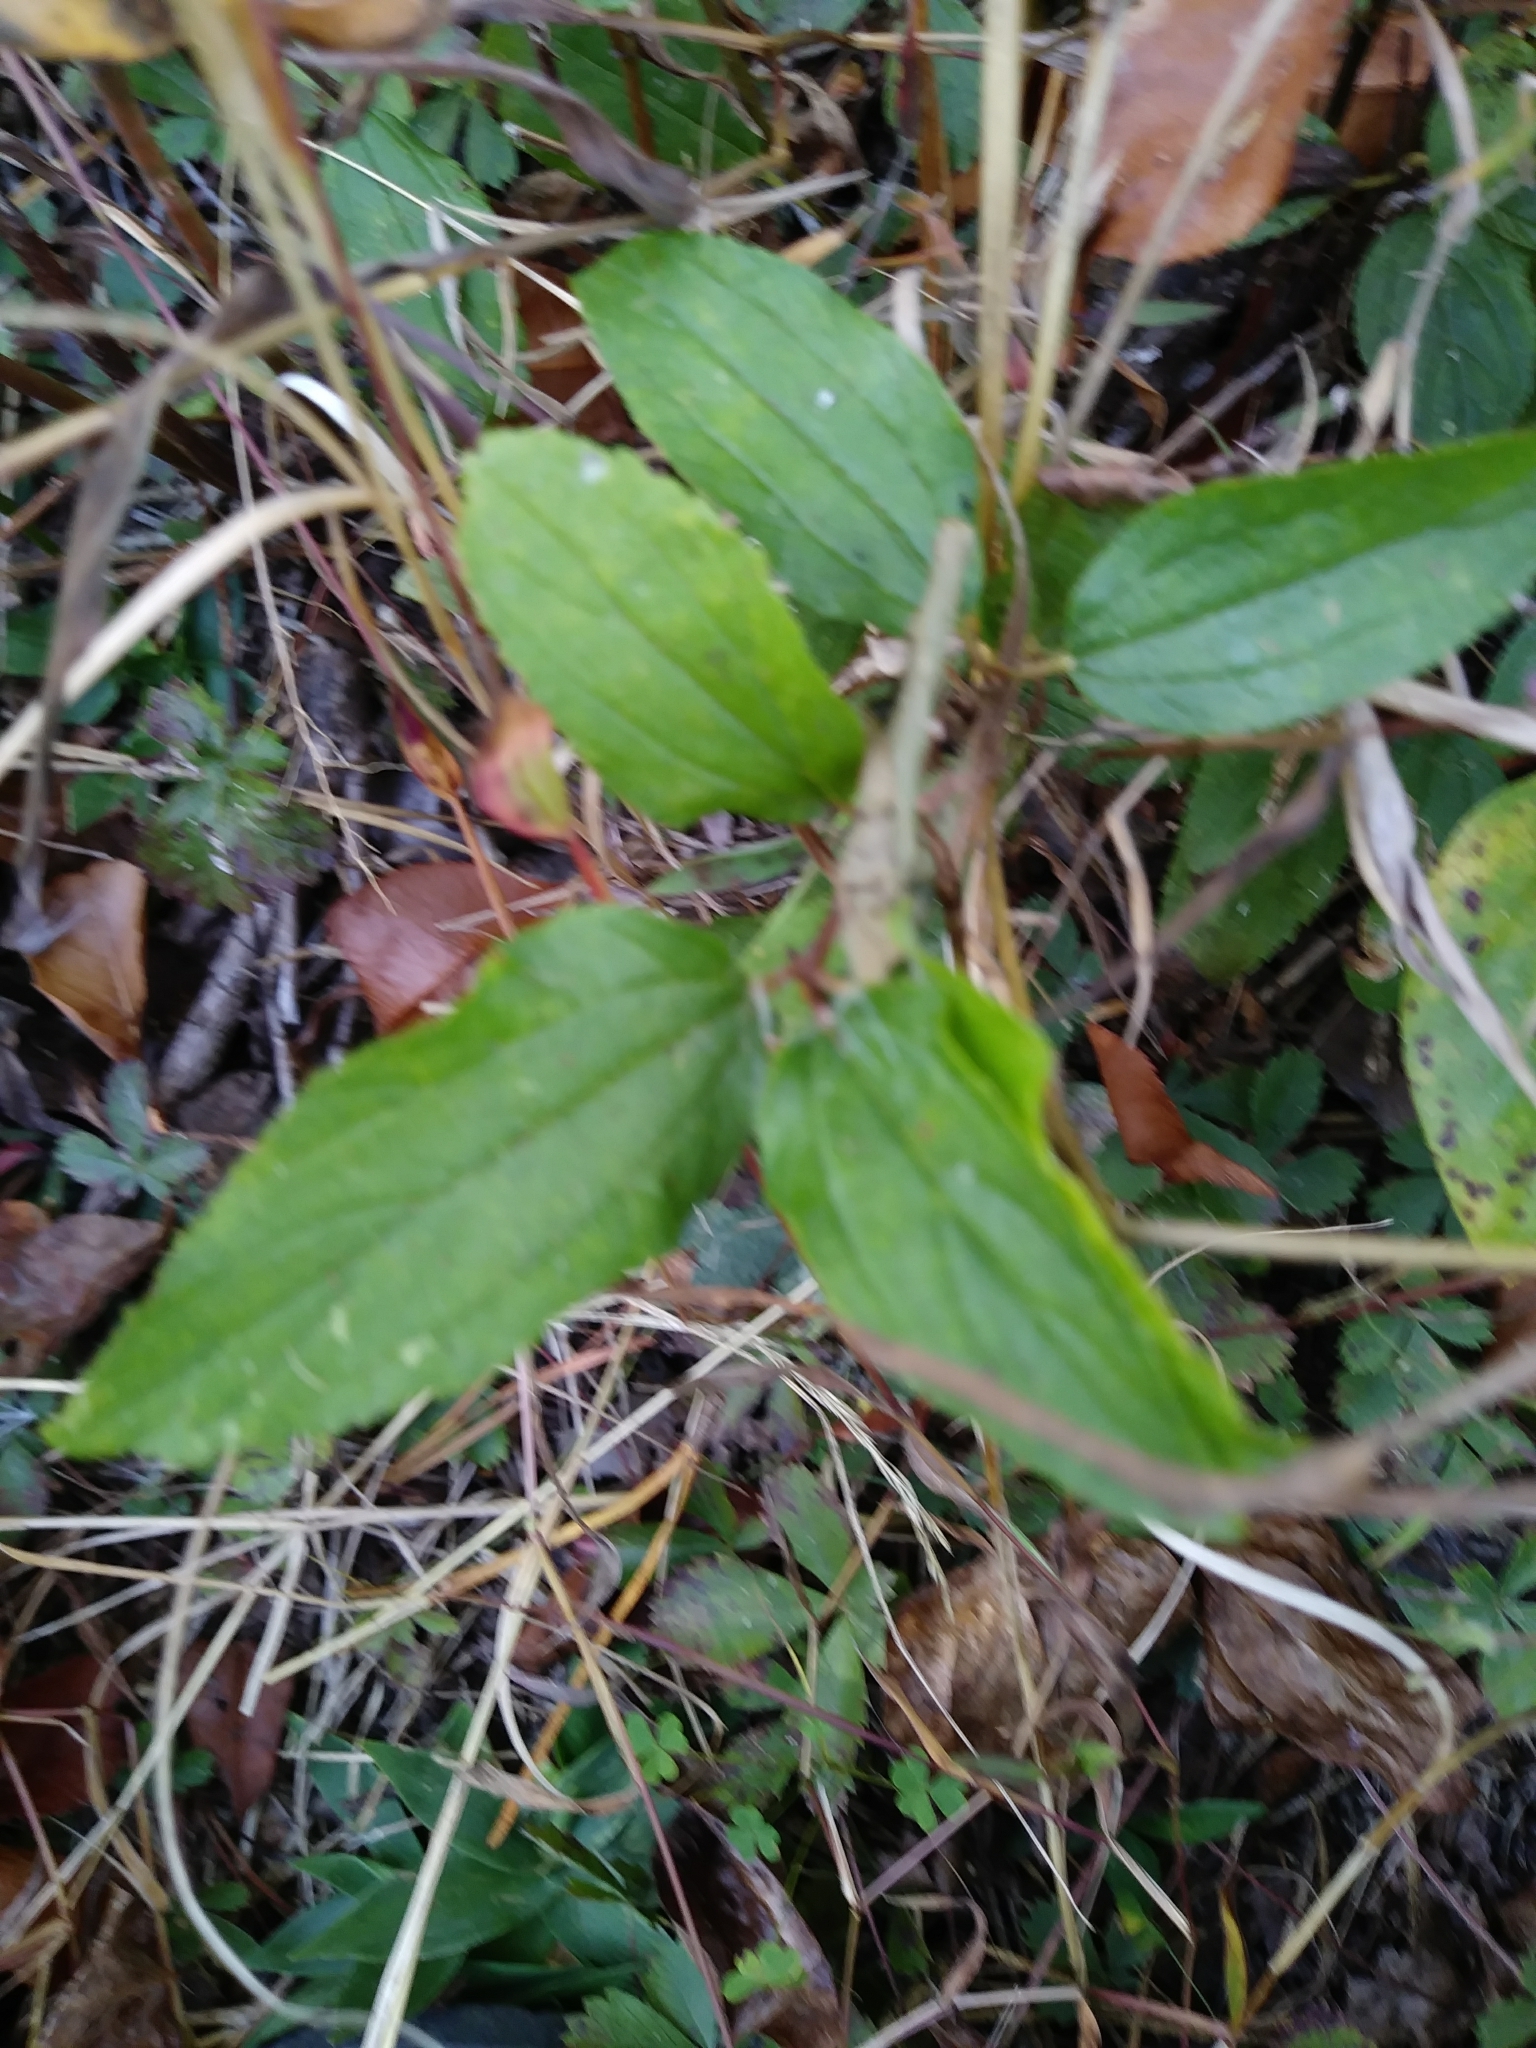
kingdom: Plantae
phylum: Tracheophyta
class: Magnoliopsida
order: Rosales
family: Rhamnaceae
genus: Ceanothus
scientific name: Ceanothus americanus
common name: Redroot
